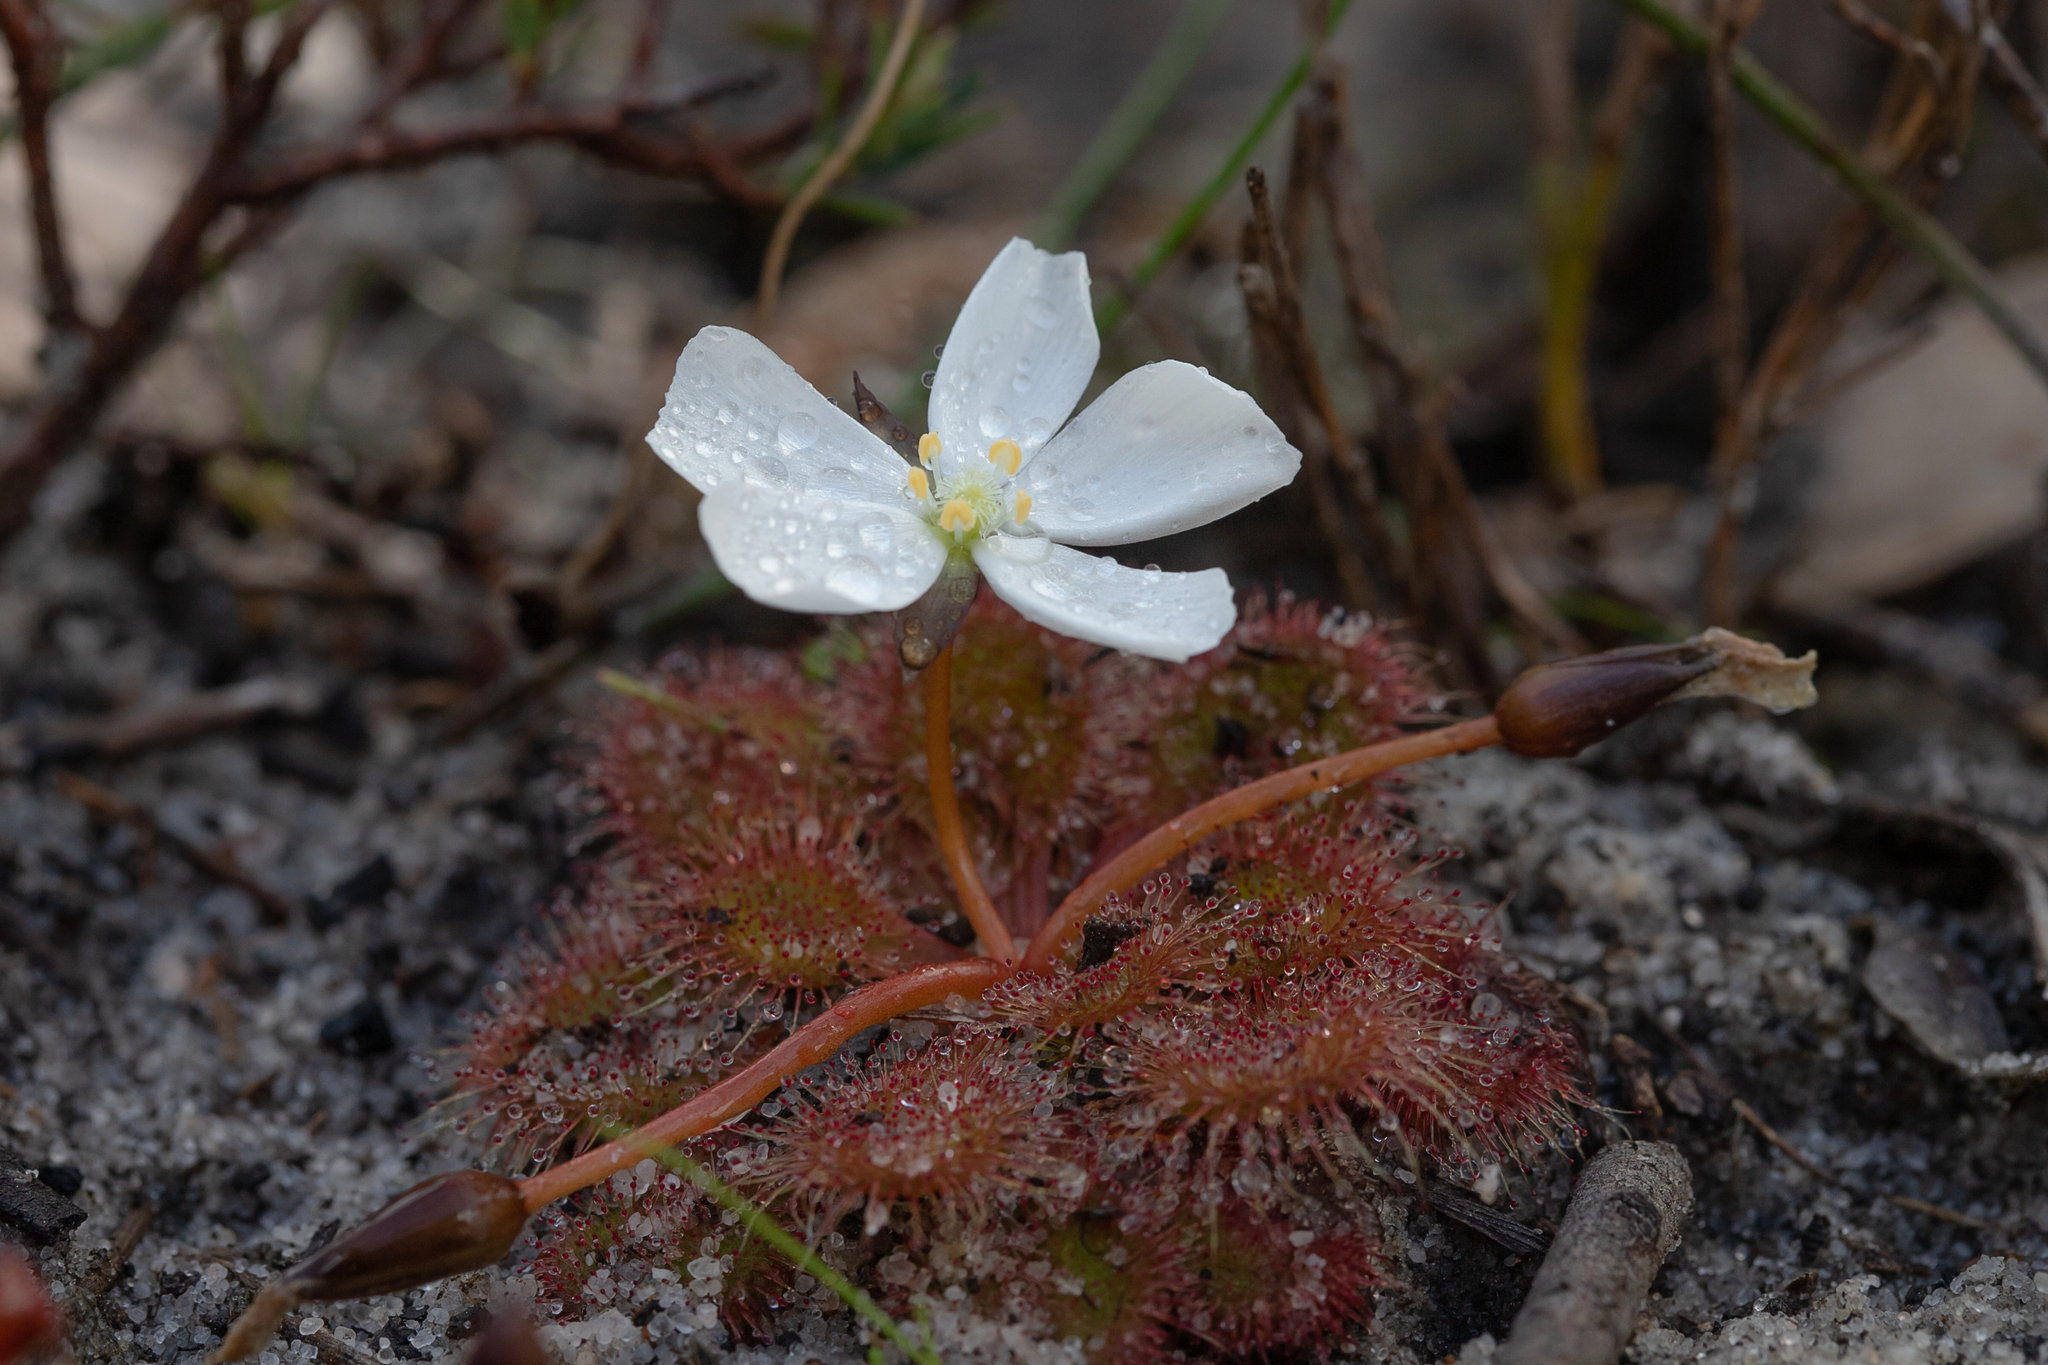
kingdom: Plantae
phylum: Tracheophyta
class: Magnoliopsida
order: Caryophyllales
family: Droseraceae
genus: Drosera
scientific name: Drosera whittakeri
